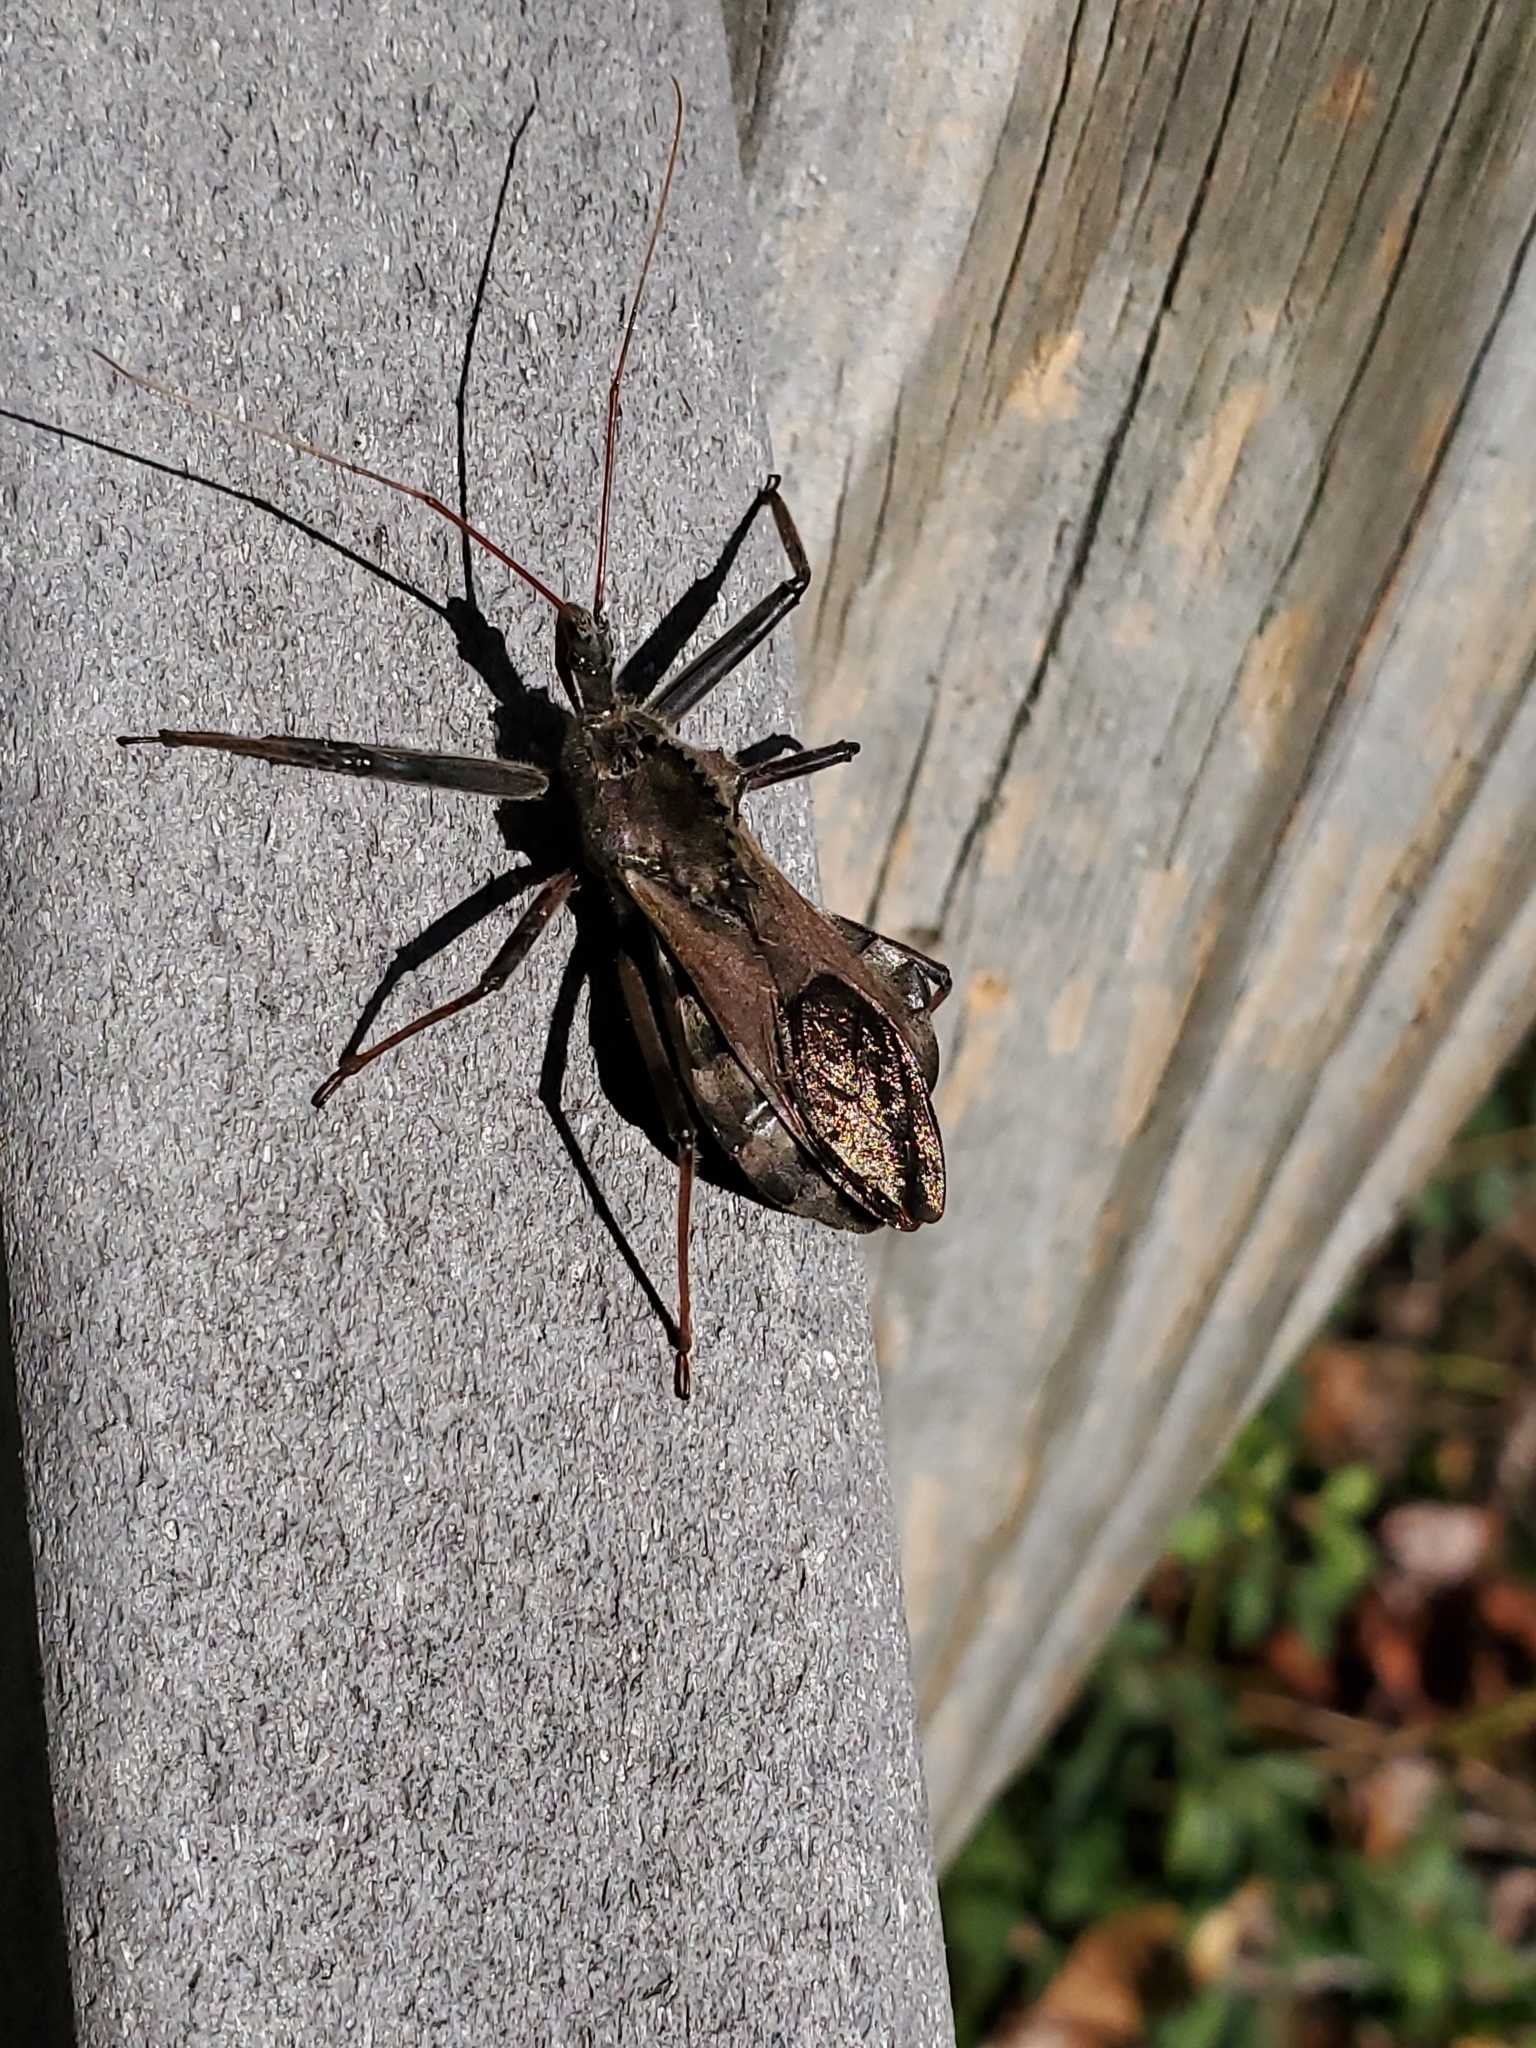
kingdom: Animalia
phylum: Arthropoda
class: Insecta
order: Hemiptera
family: Reduviidae
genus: Arilus
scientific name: Arilus cristatus
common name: North american wheel bug
